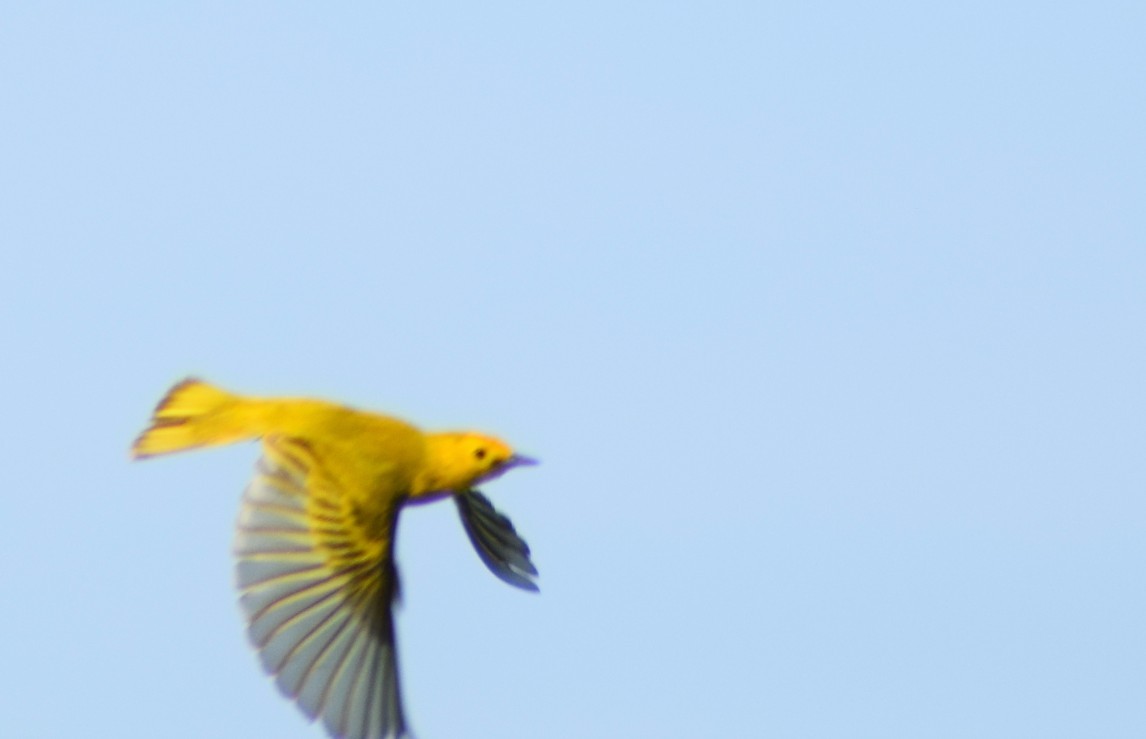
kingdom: Animalia
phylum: Chordata
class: Aves
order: Passeriformes
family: Parulidae
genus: Setophaga
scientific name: Setophaga petechia
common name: Yellow warbler
